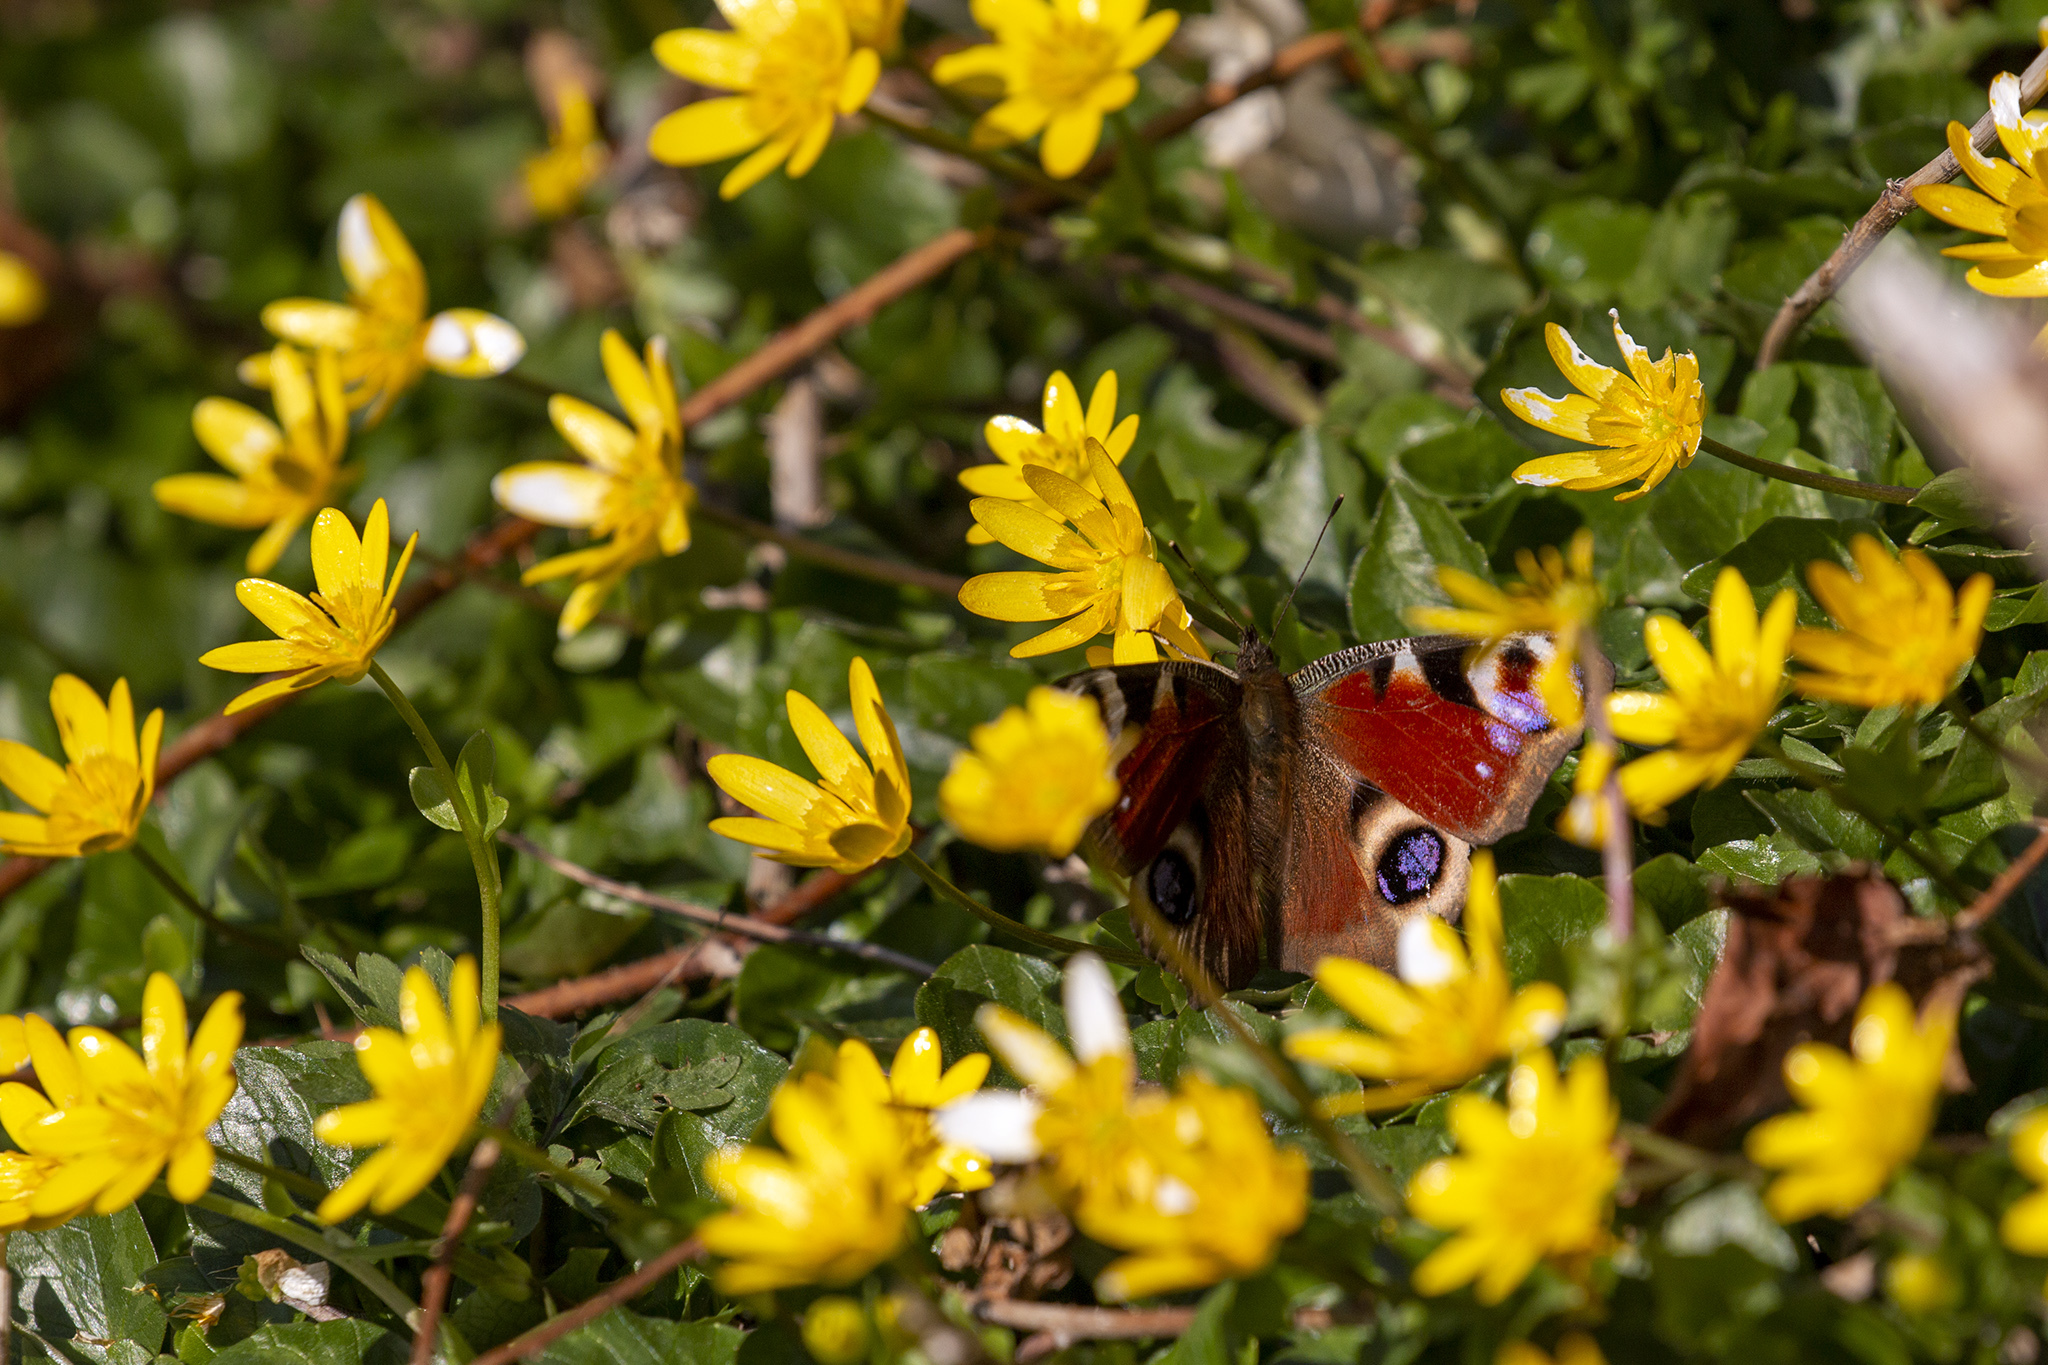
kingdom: Animalia
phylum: Arthropoda
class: Insecta
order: Lepidoptera
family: Nymphalidae
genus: Aglais
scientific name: Aglais io
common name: Peacock
